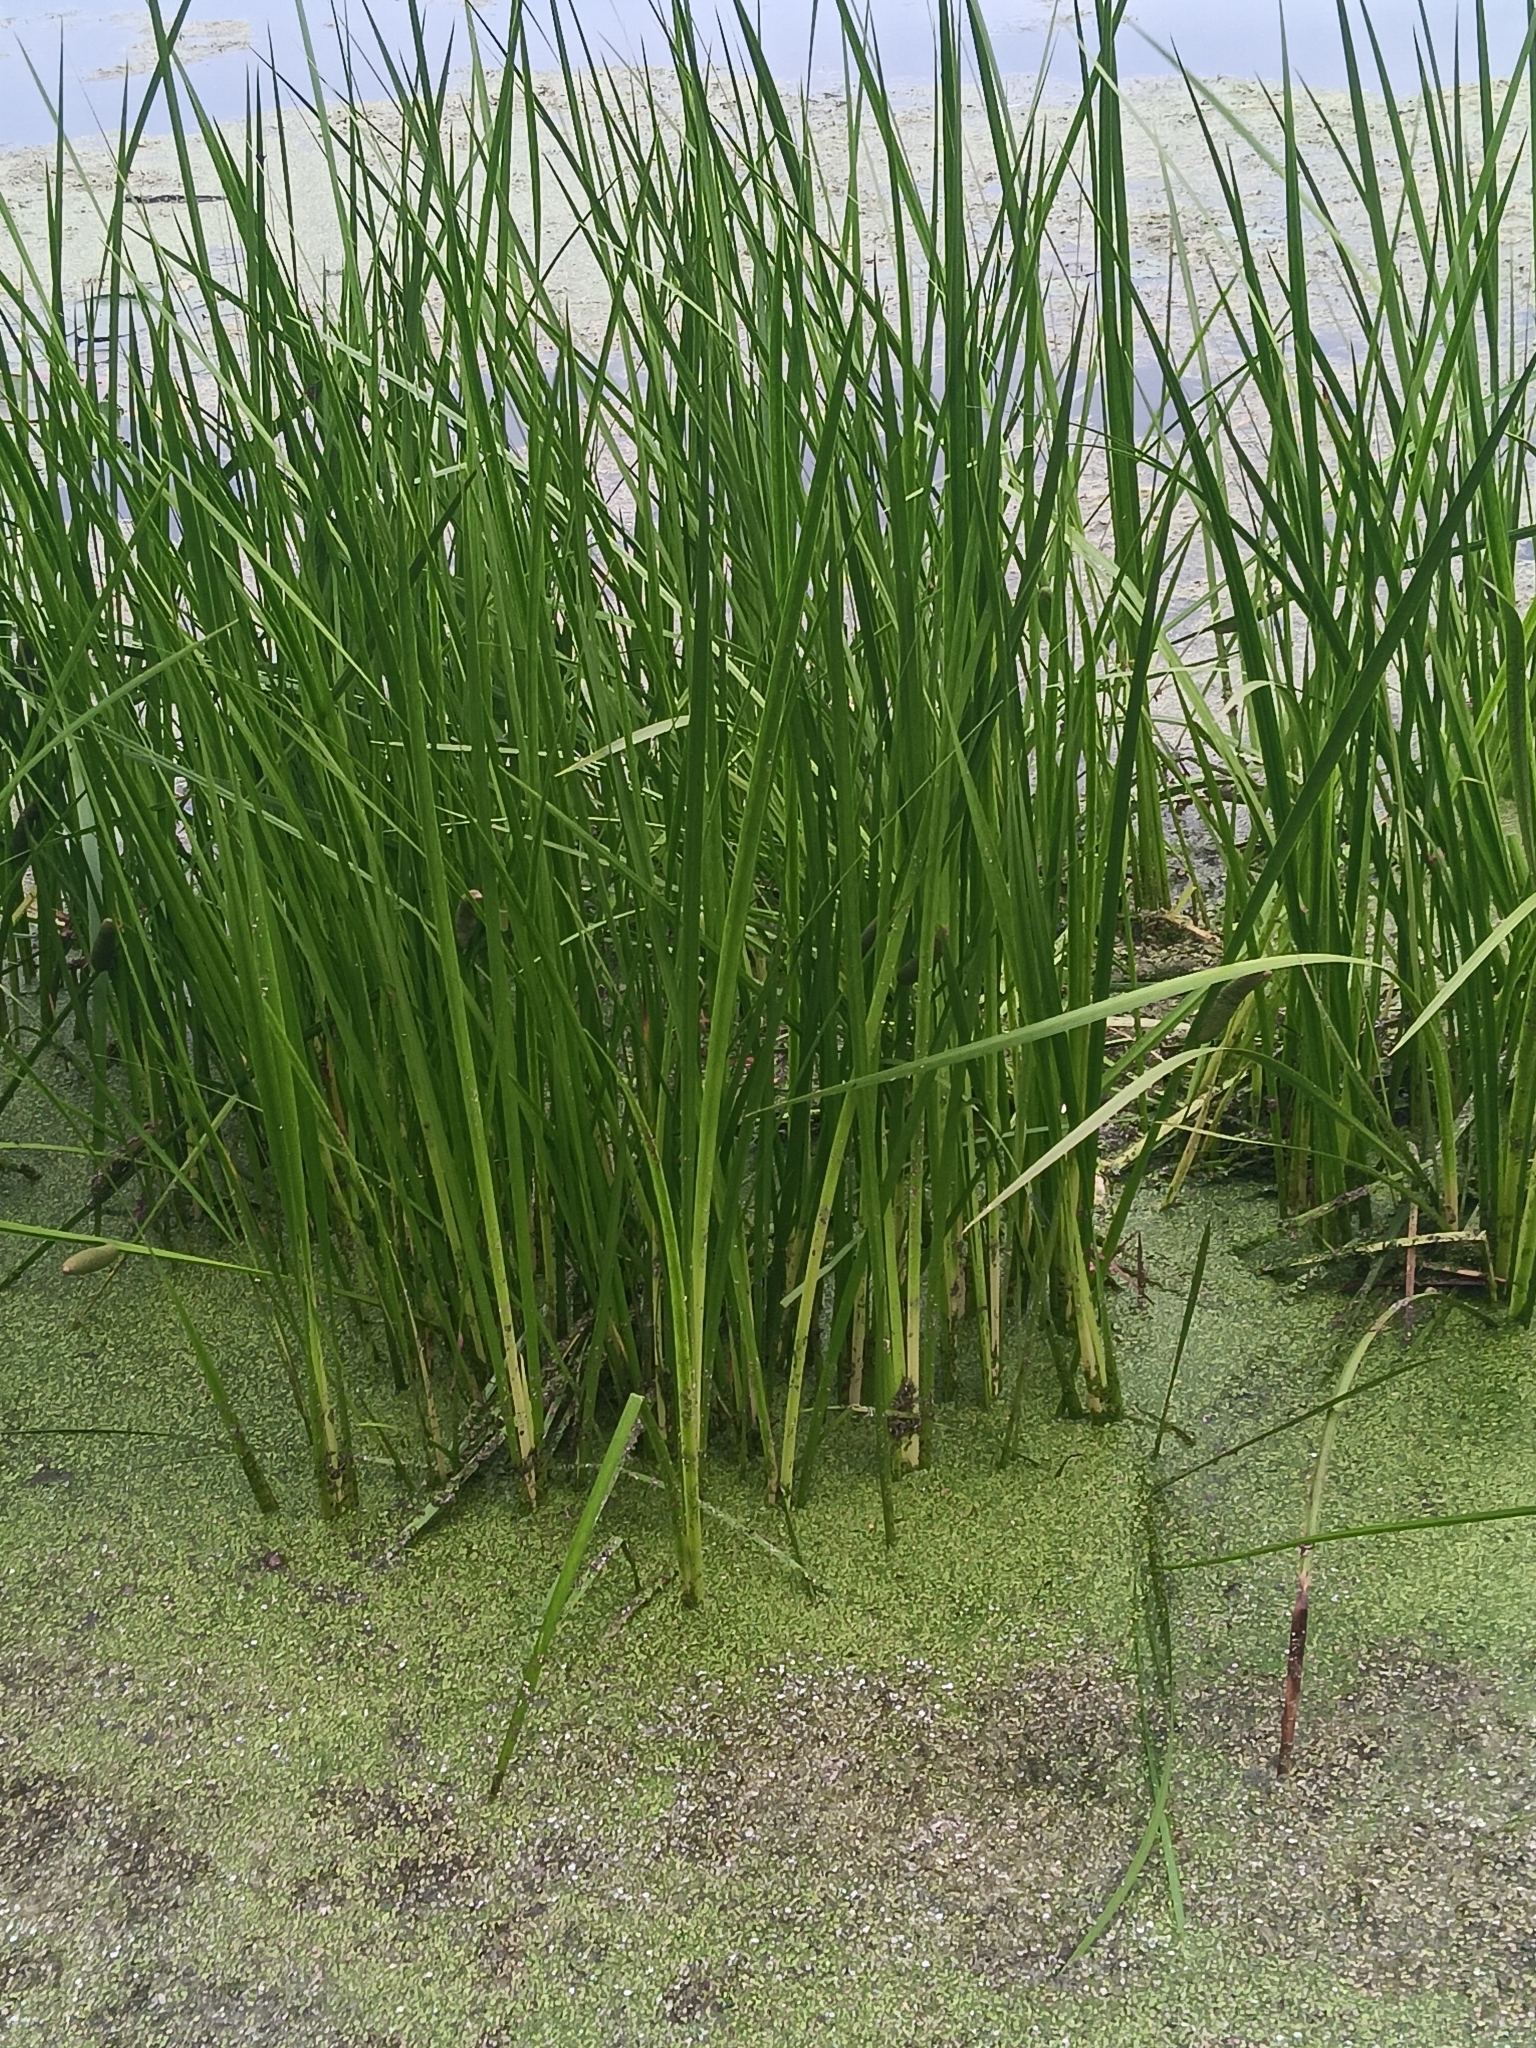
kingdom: Plantae
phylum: Tracheophyta
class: Liliopsida
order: Acorales
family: Acoraceae
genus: Acorus
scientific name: Acorus calamus
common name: Sweet-flag
